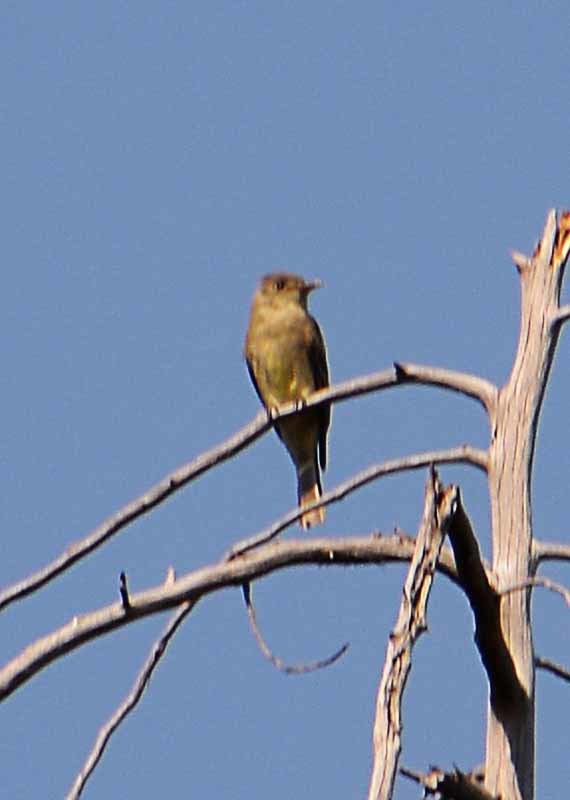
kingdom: Animalia
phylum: Chordata
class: Aves
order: Passeriformes
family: Tyrannidae
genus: Contopus
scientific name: Contopus sordidulus
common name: Western wood-pewee
